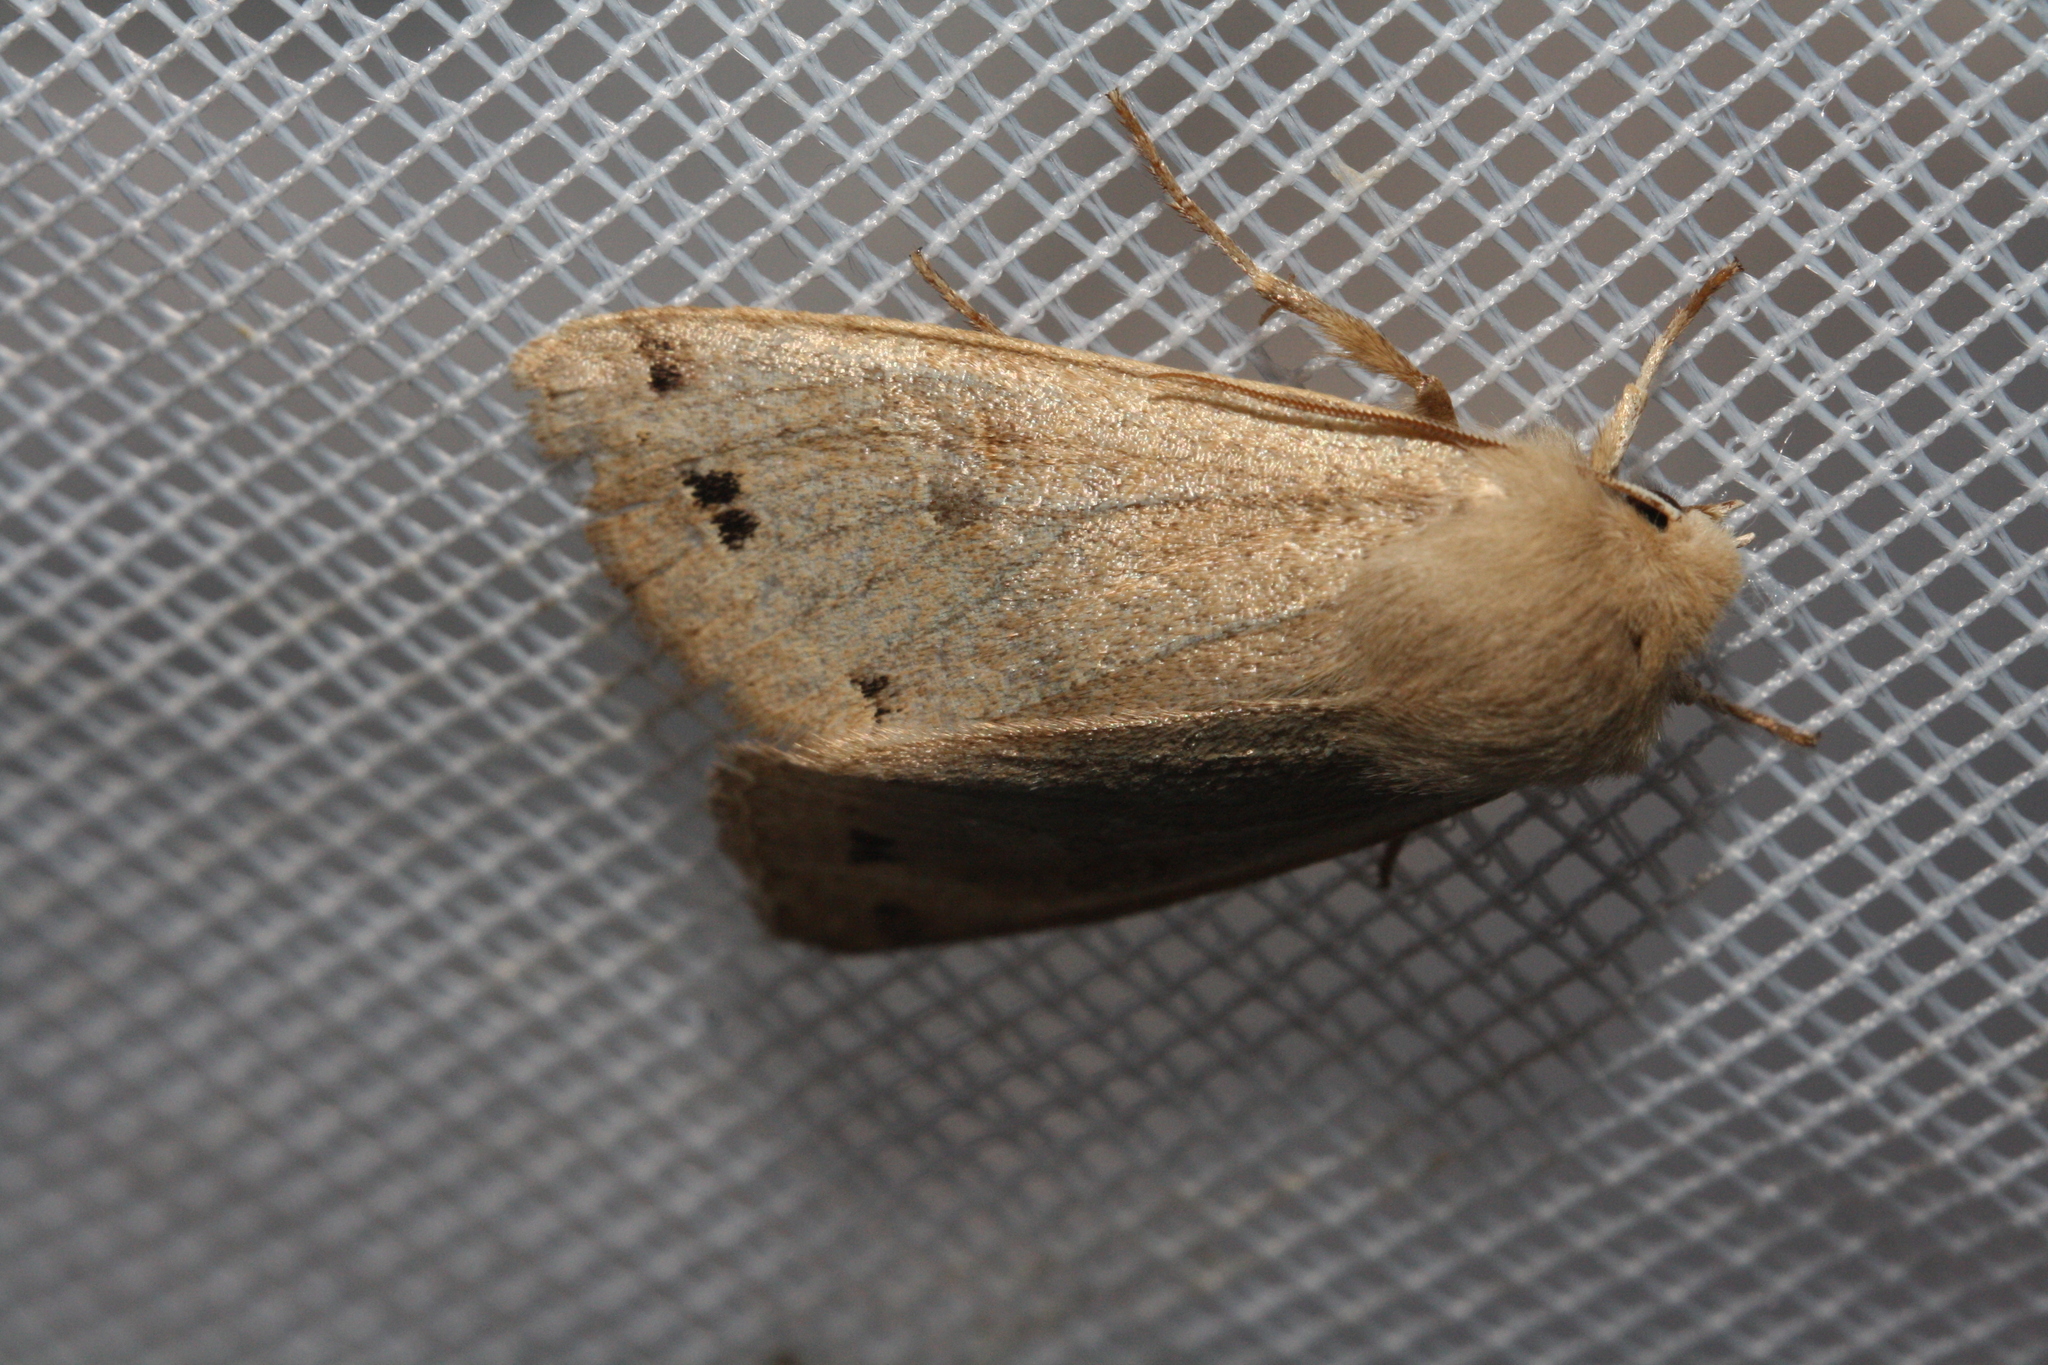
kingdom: Animalia
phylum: Arthropoda
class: Insecta
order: Lepidoptera
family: Noctuidae
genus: Anorthoa
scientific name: Anorthoa munda
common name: Twin-spotted quaker
